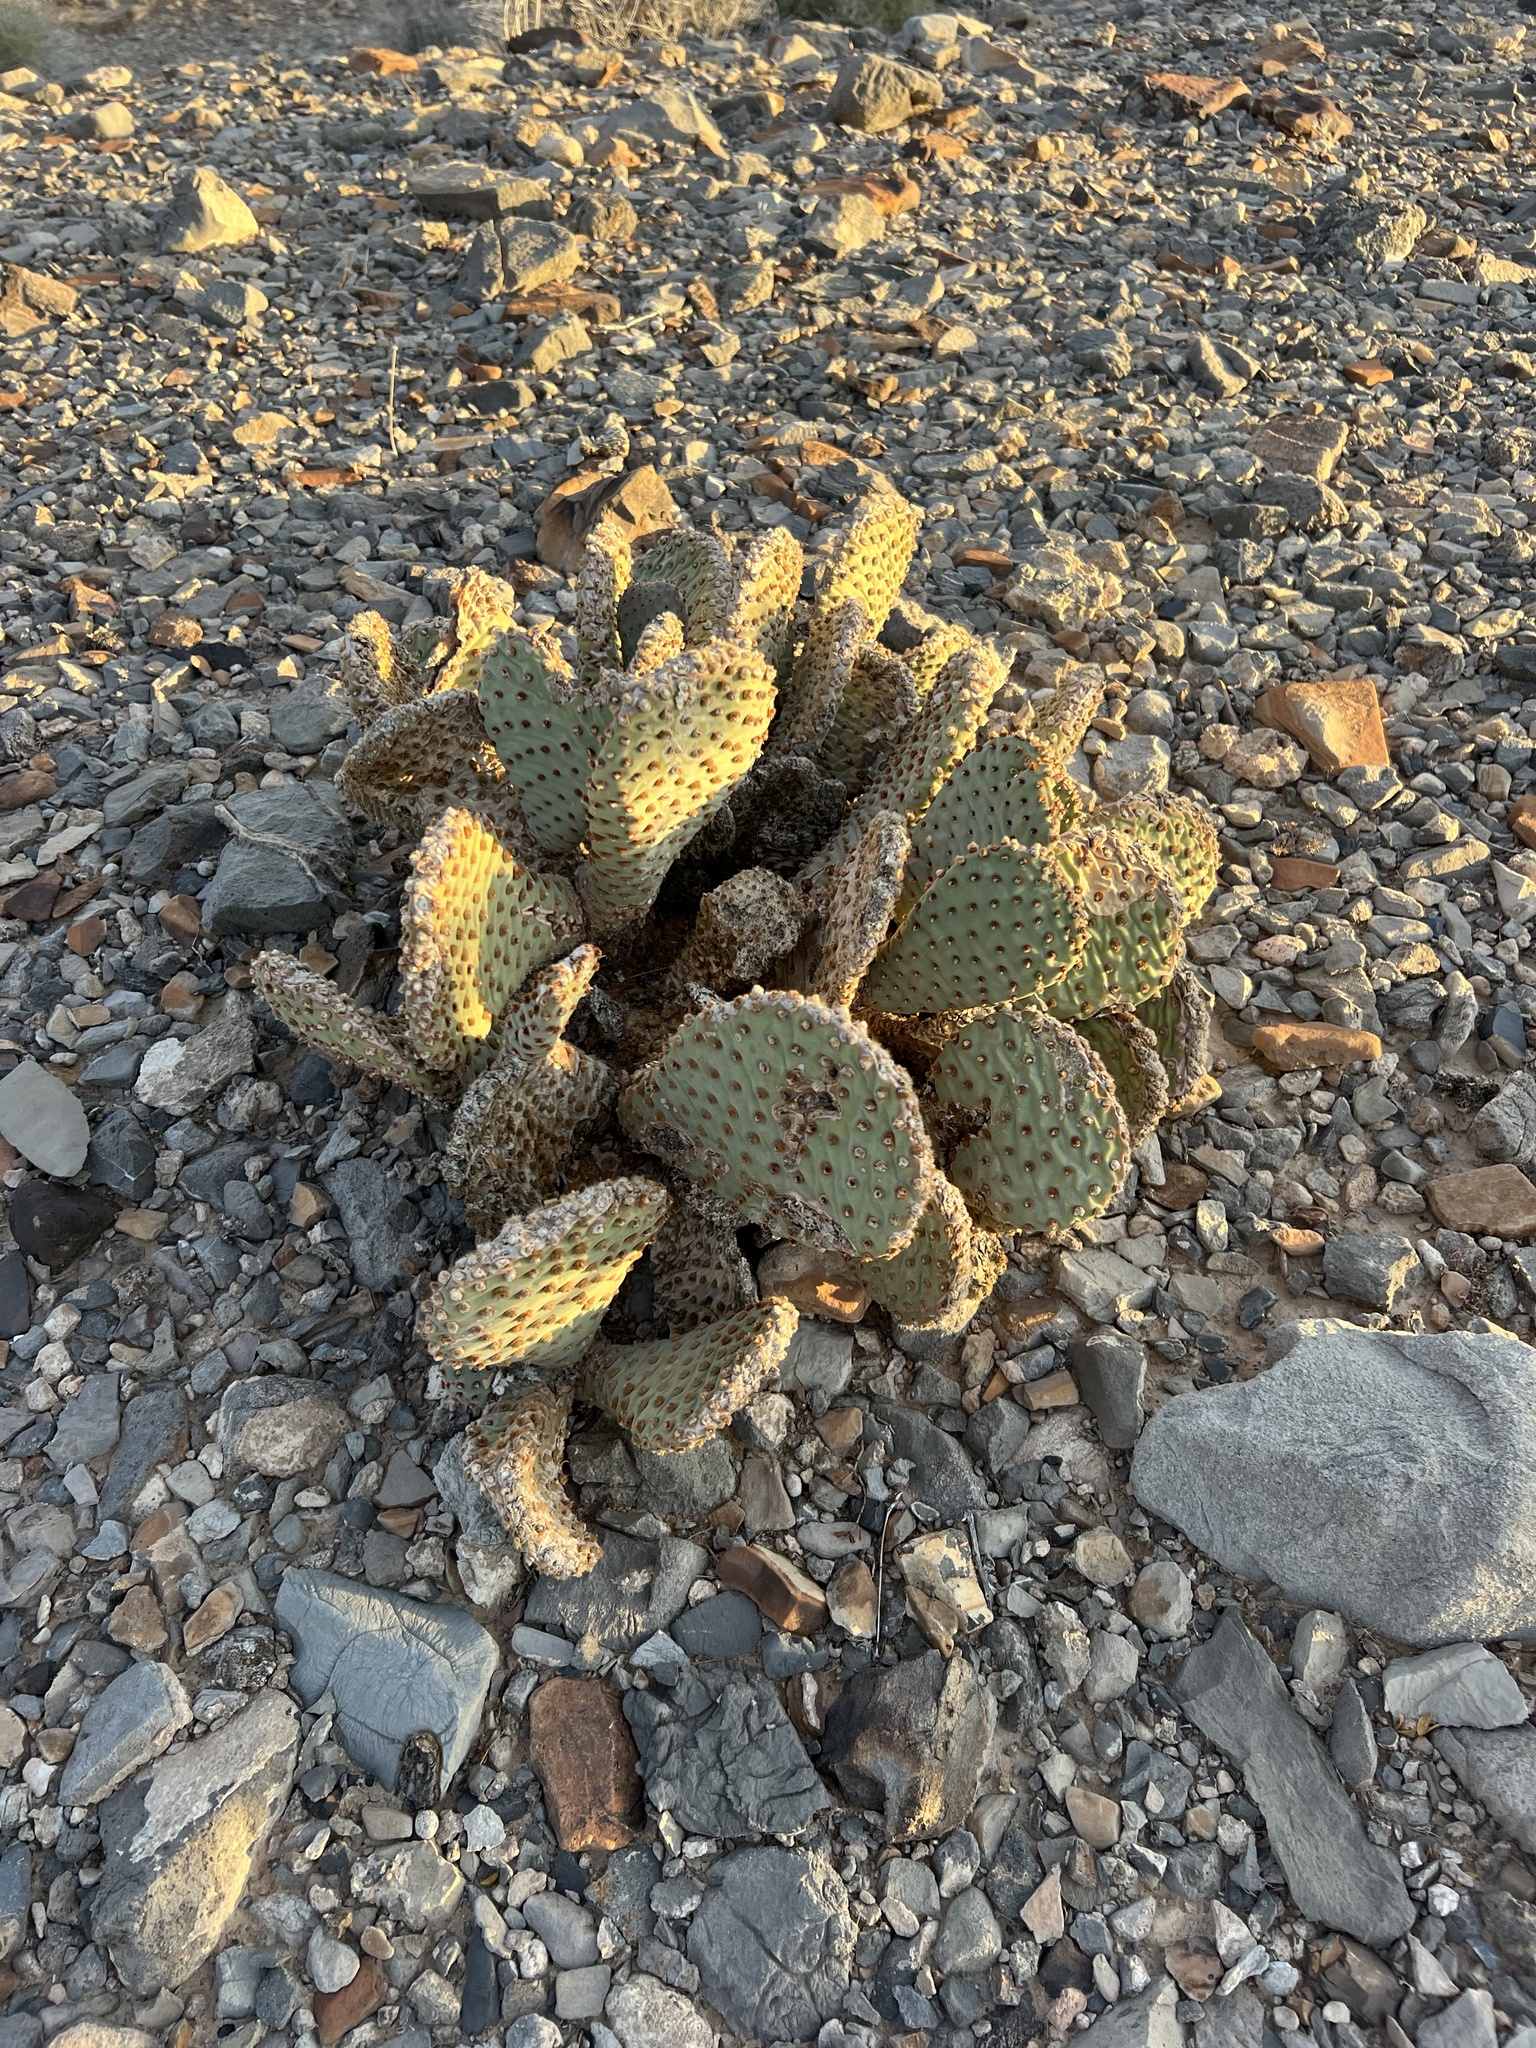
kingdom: Plantae
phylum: Tracheophyta
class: Magnoliopsida
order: Caryophyllales
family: Cactaceae
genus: Opuntia
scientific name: Opuntia basilaris
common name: Beavertail prickly-pear
